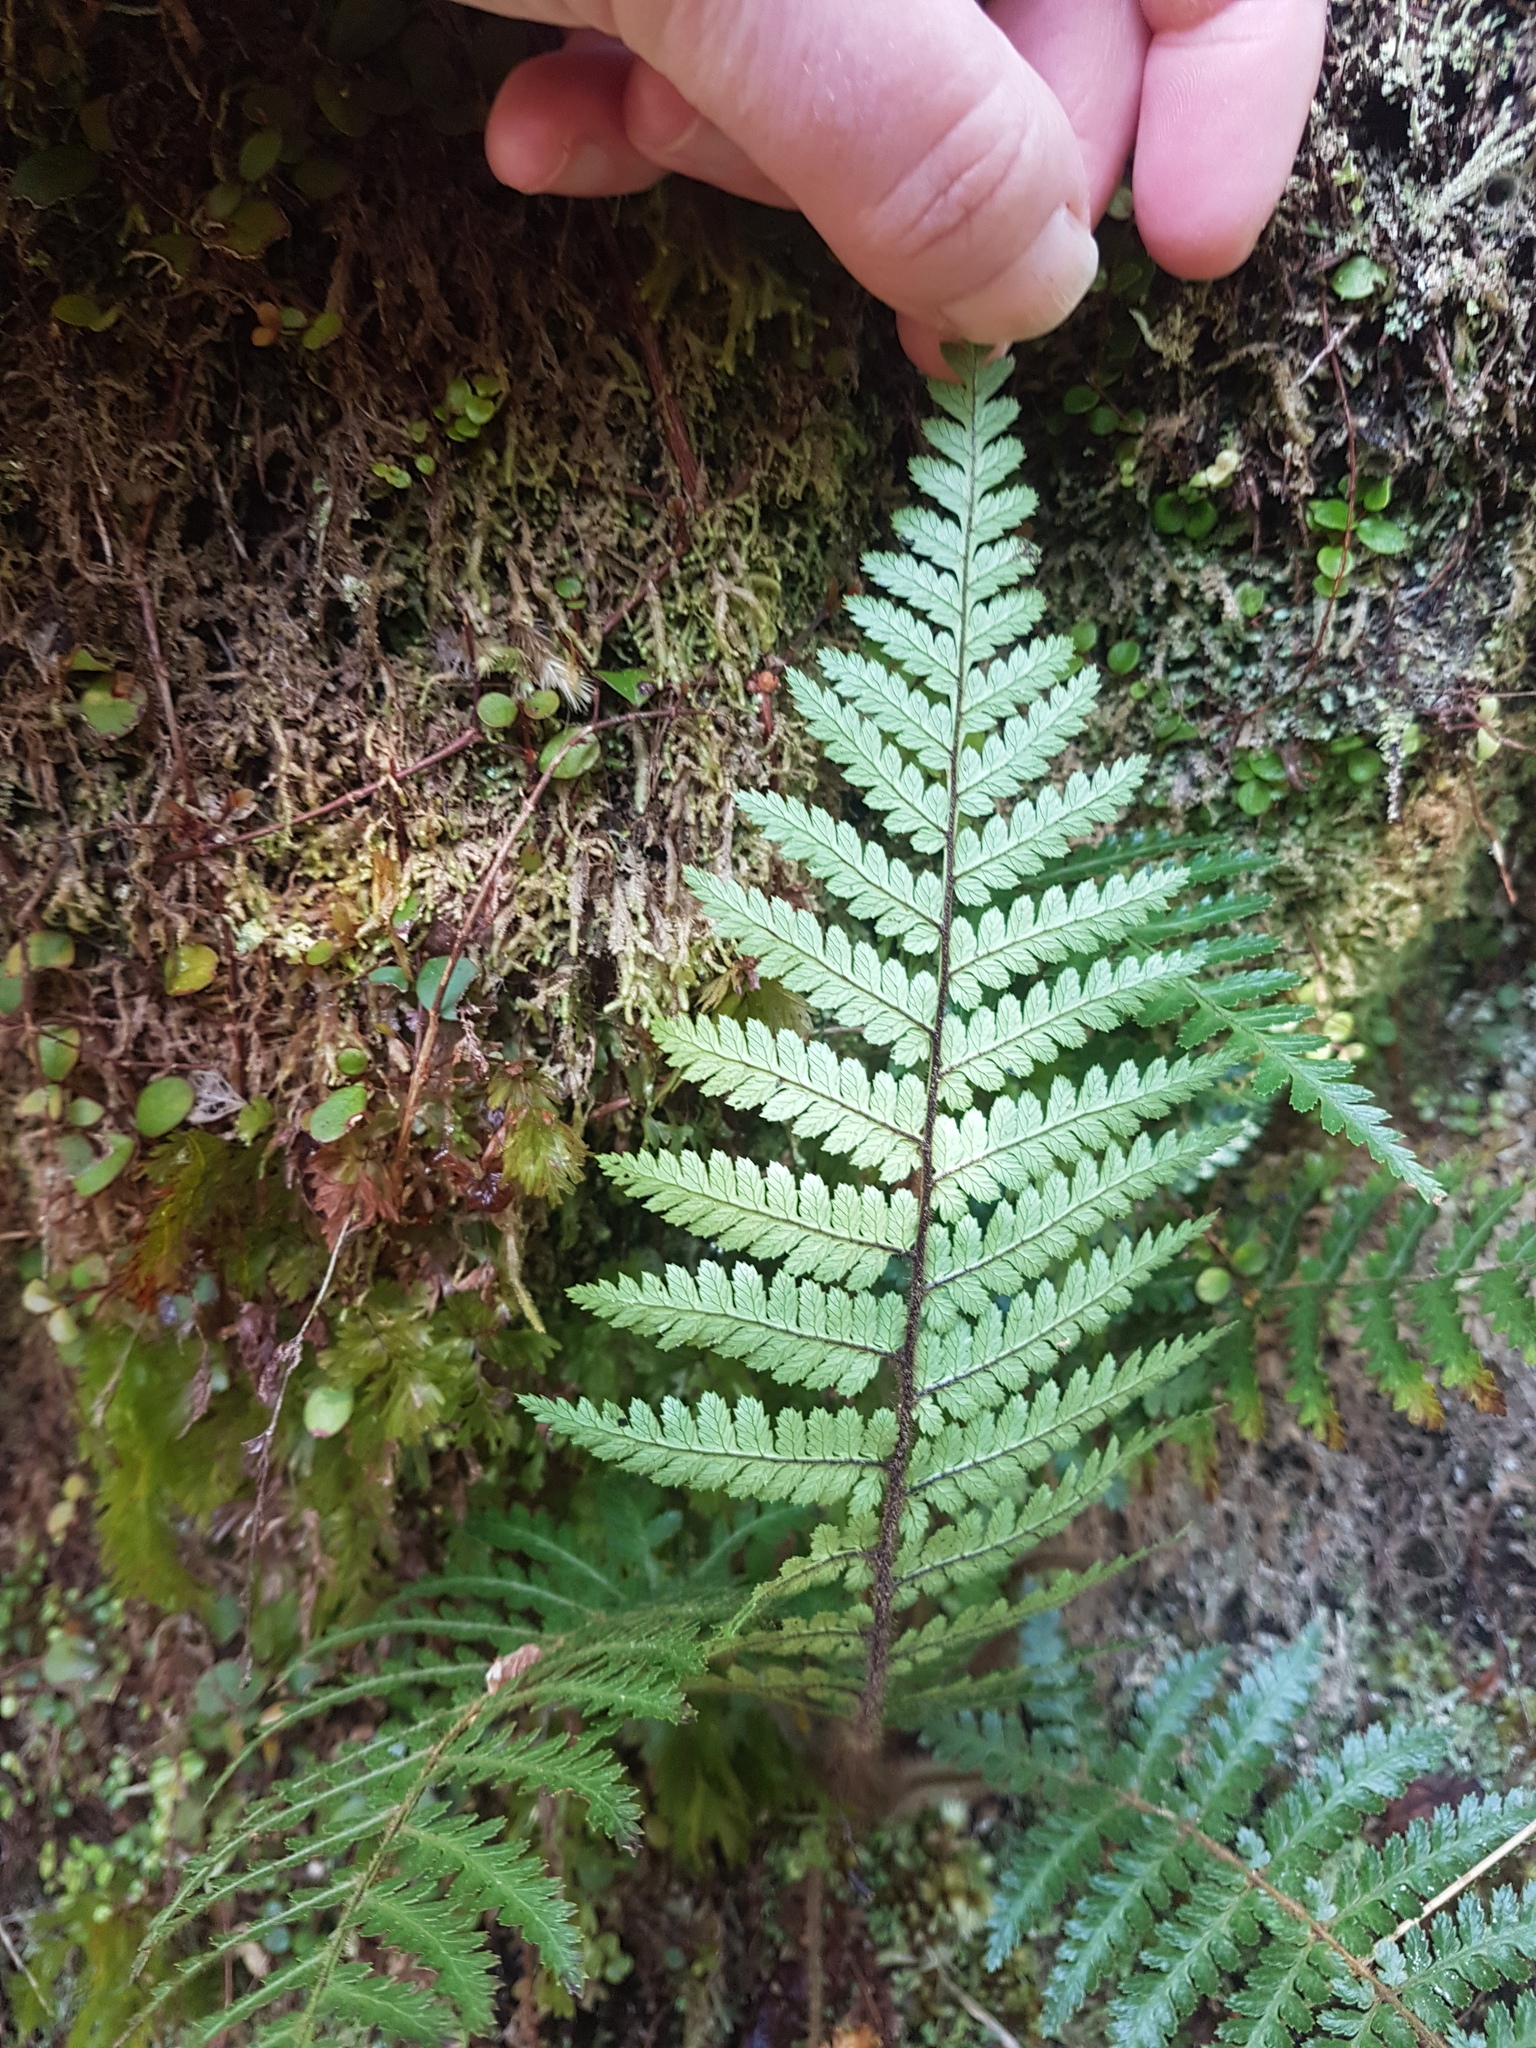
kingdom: Plantae
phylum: Tracheophyta
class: Polypodiopsida
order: Cyatheales
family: Dicksoniaceae
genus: Dicksonia
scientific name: Dicksonia squarrosa
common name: Hard treefern
